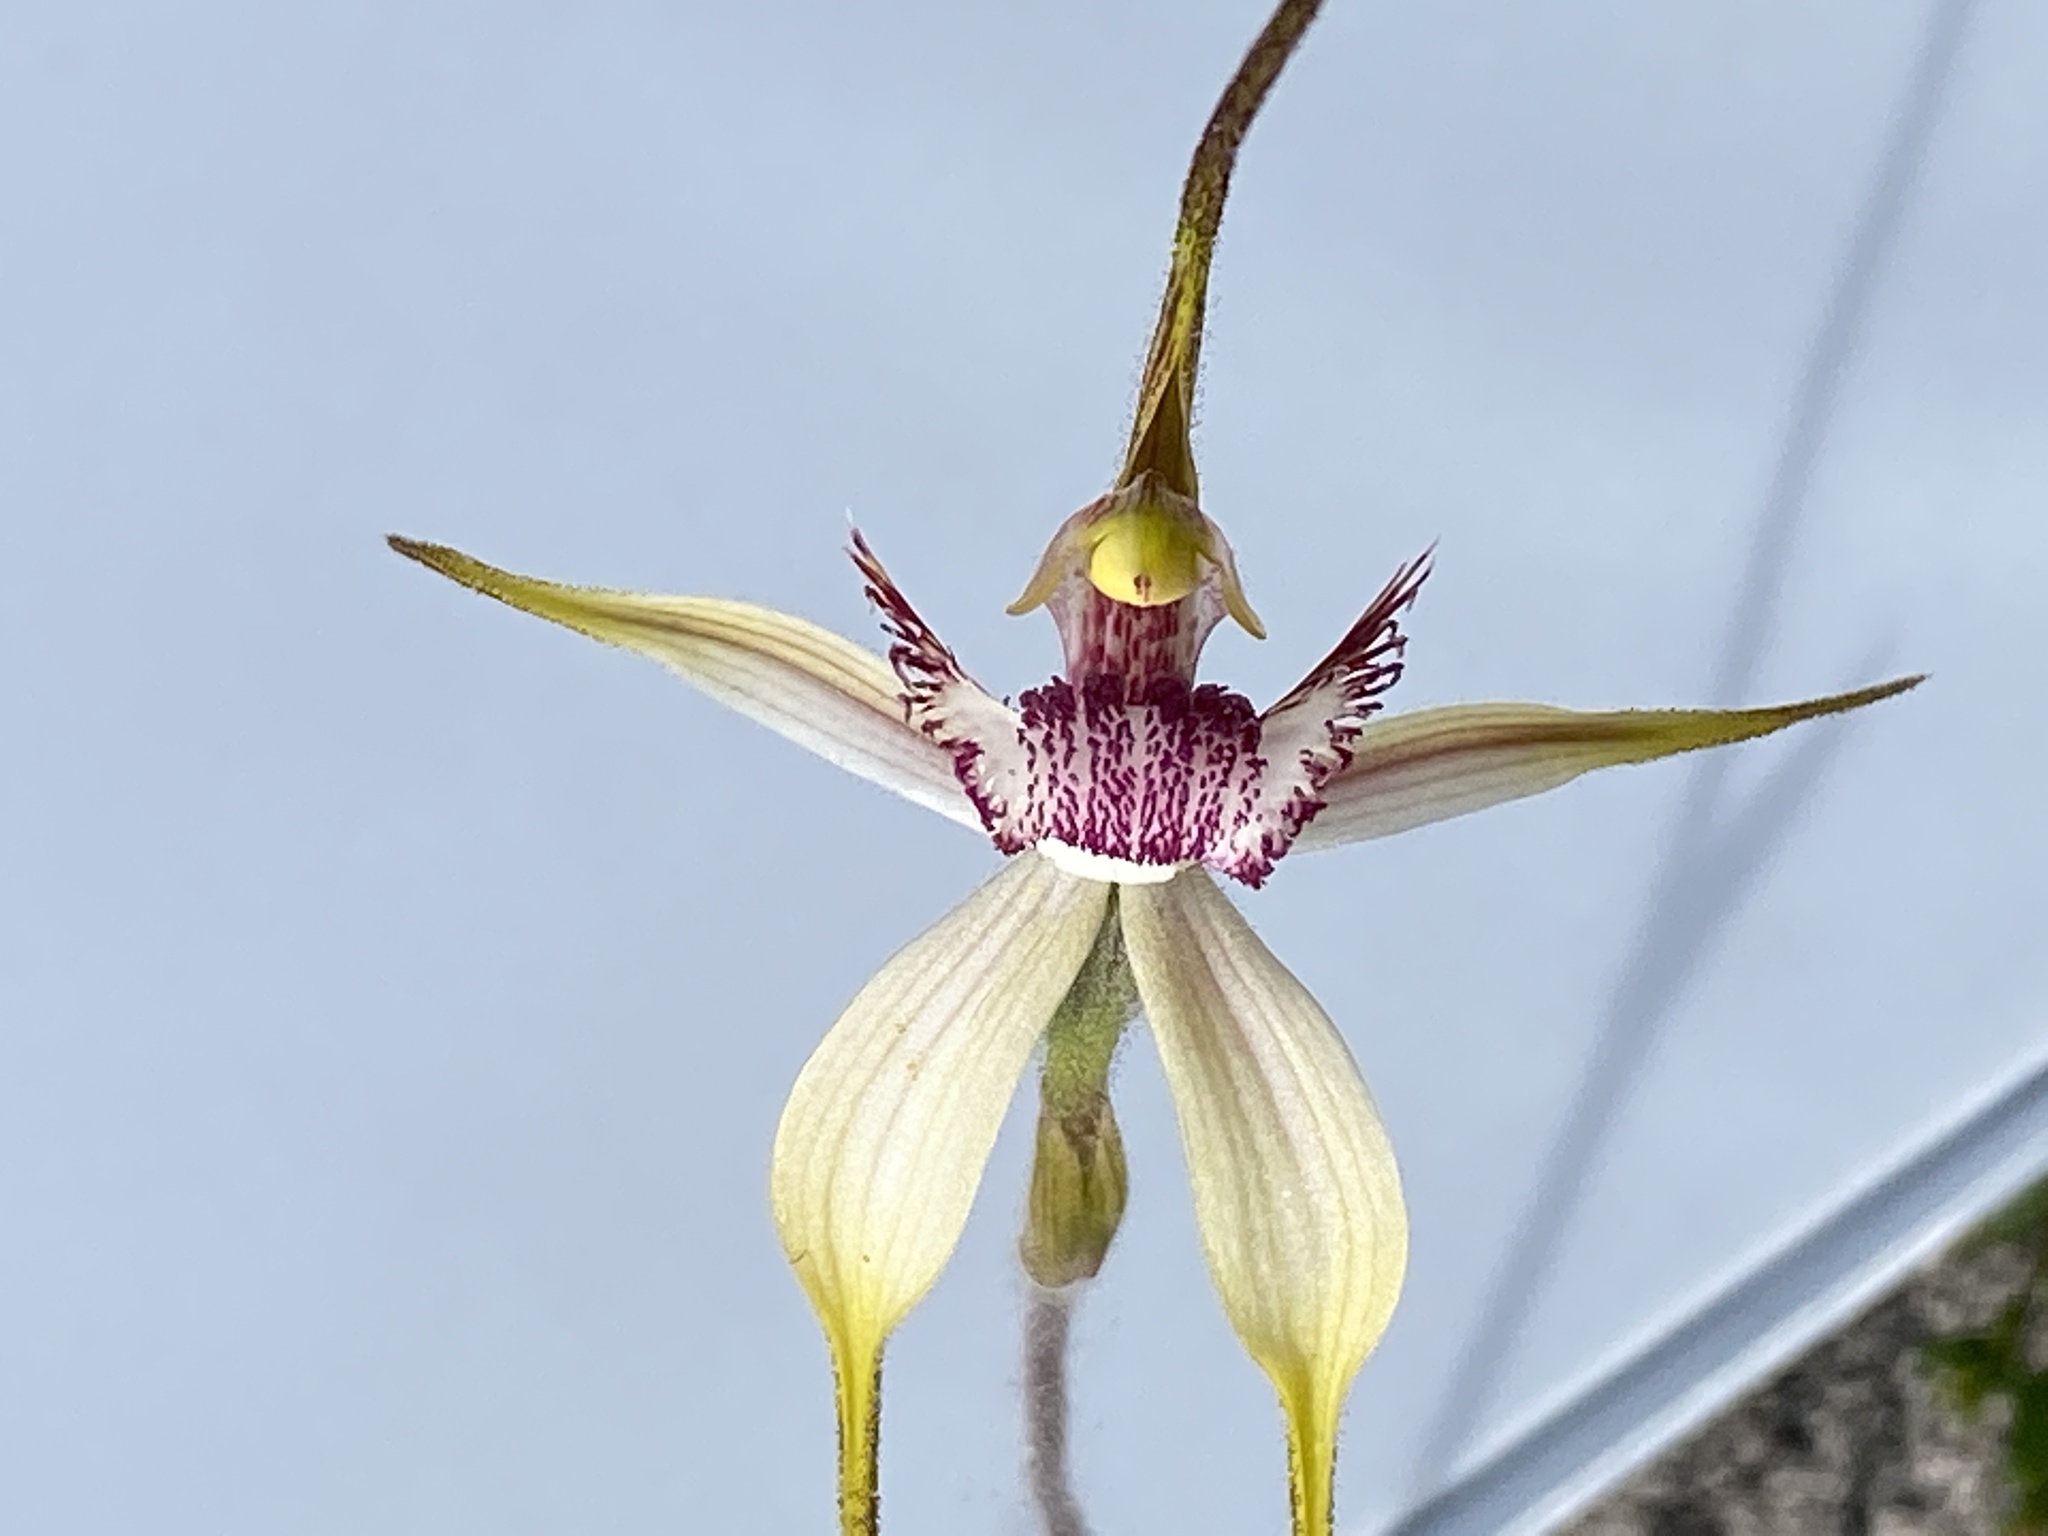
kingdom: Plantae
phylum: Tracheophyta
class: Liliopsida
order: Asparagales
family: Orchidaceae
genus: Caladenia
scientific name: Caladenia coactescens
